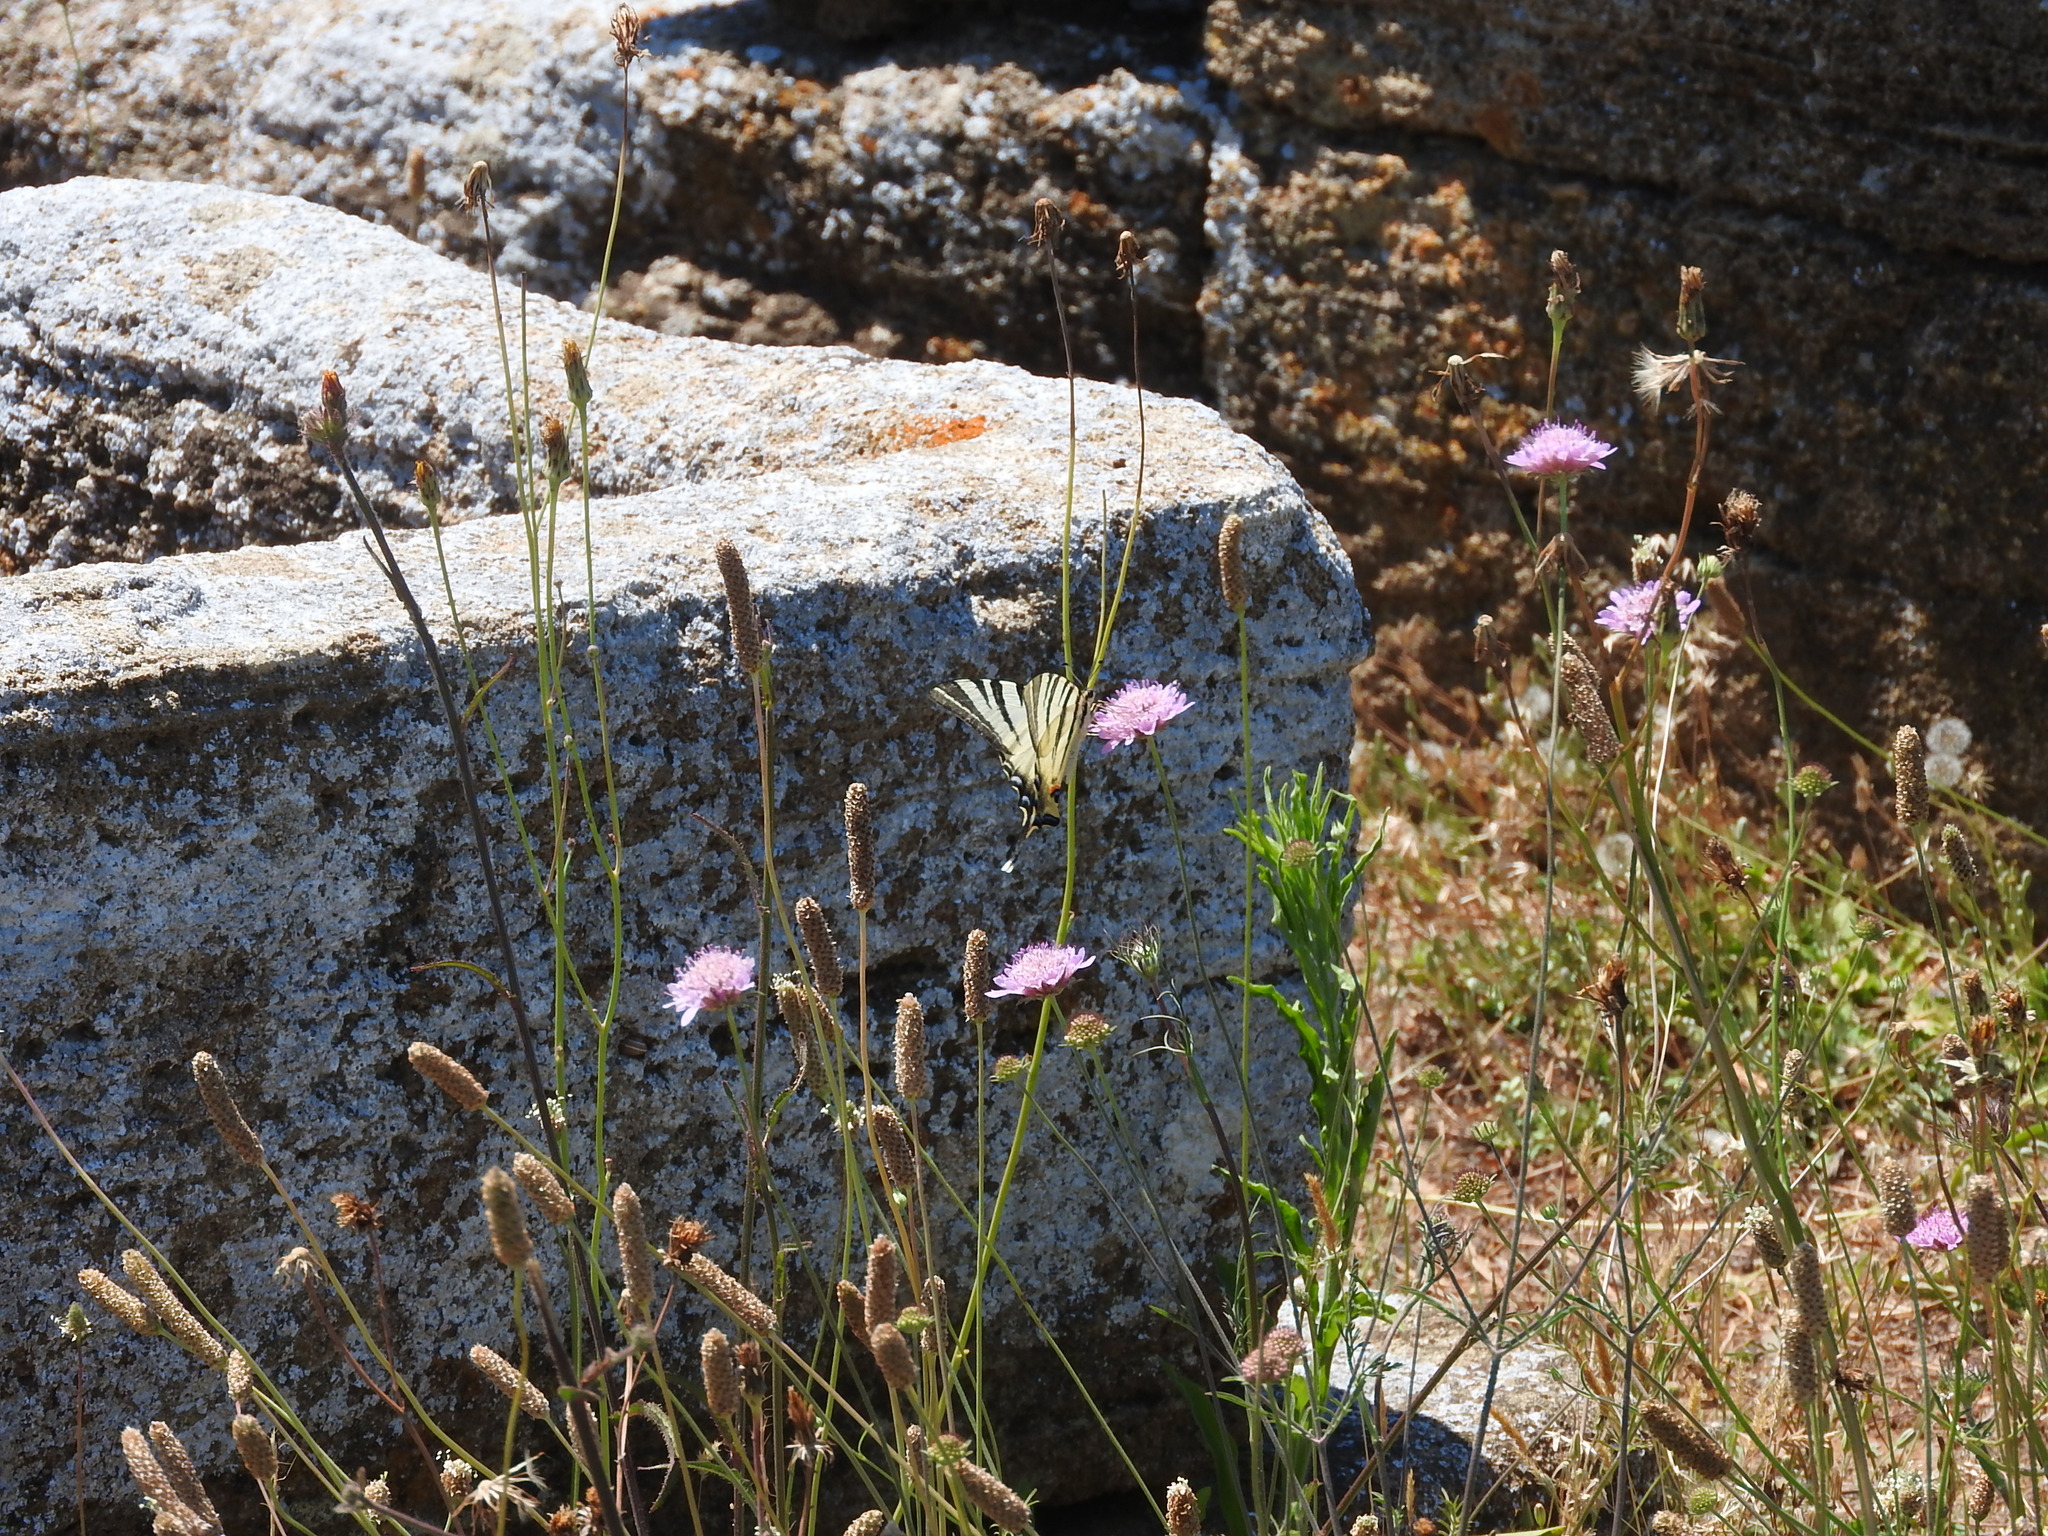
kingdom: Animalia
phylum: Arthropoda
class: Insecta
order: Lepidoptera
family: Papilionidae
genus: Iphiclides
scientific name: Iphiclides podalirius
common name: Scarce swallowtail
